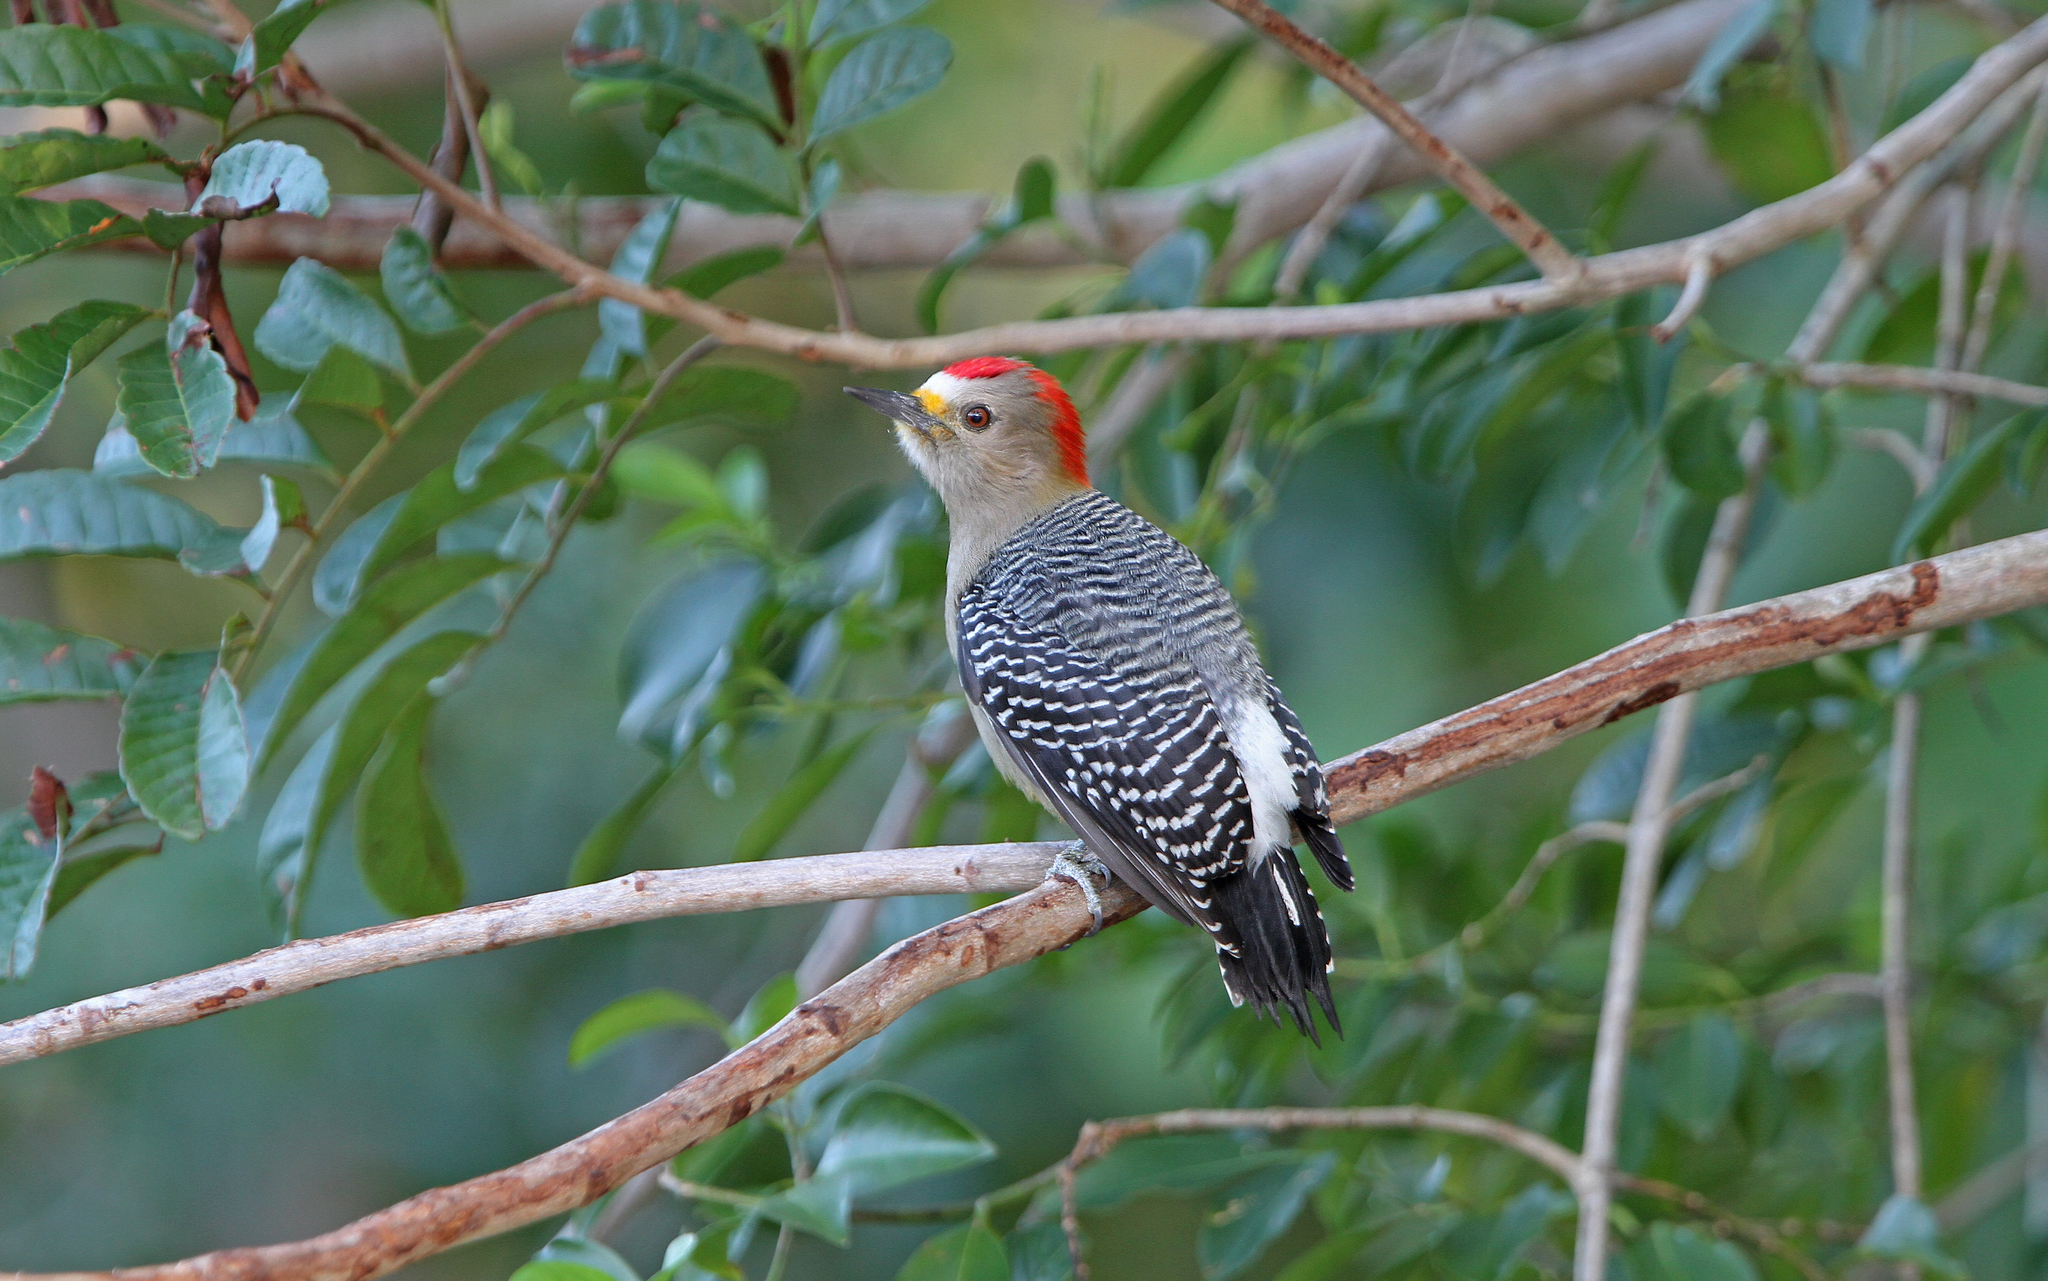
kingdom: Animalia
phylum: Chordata
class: Aves
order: Piciformes
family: Picidae
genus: Melanerpes
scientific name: Melanerpes pygmaeus
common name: Yucatan woodpecker
